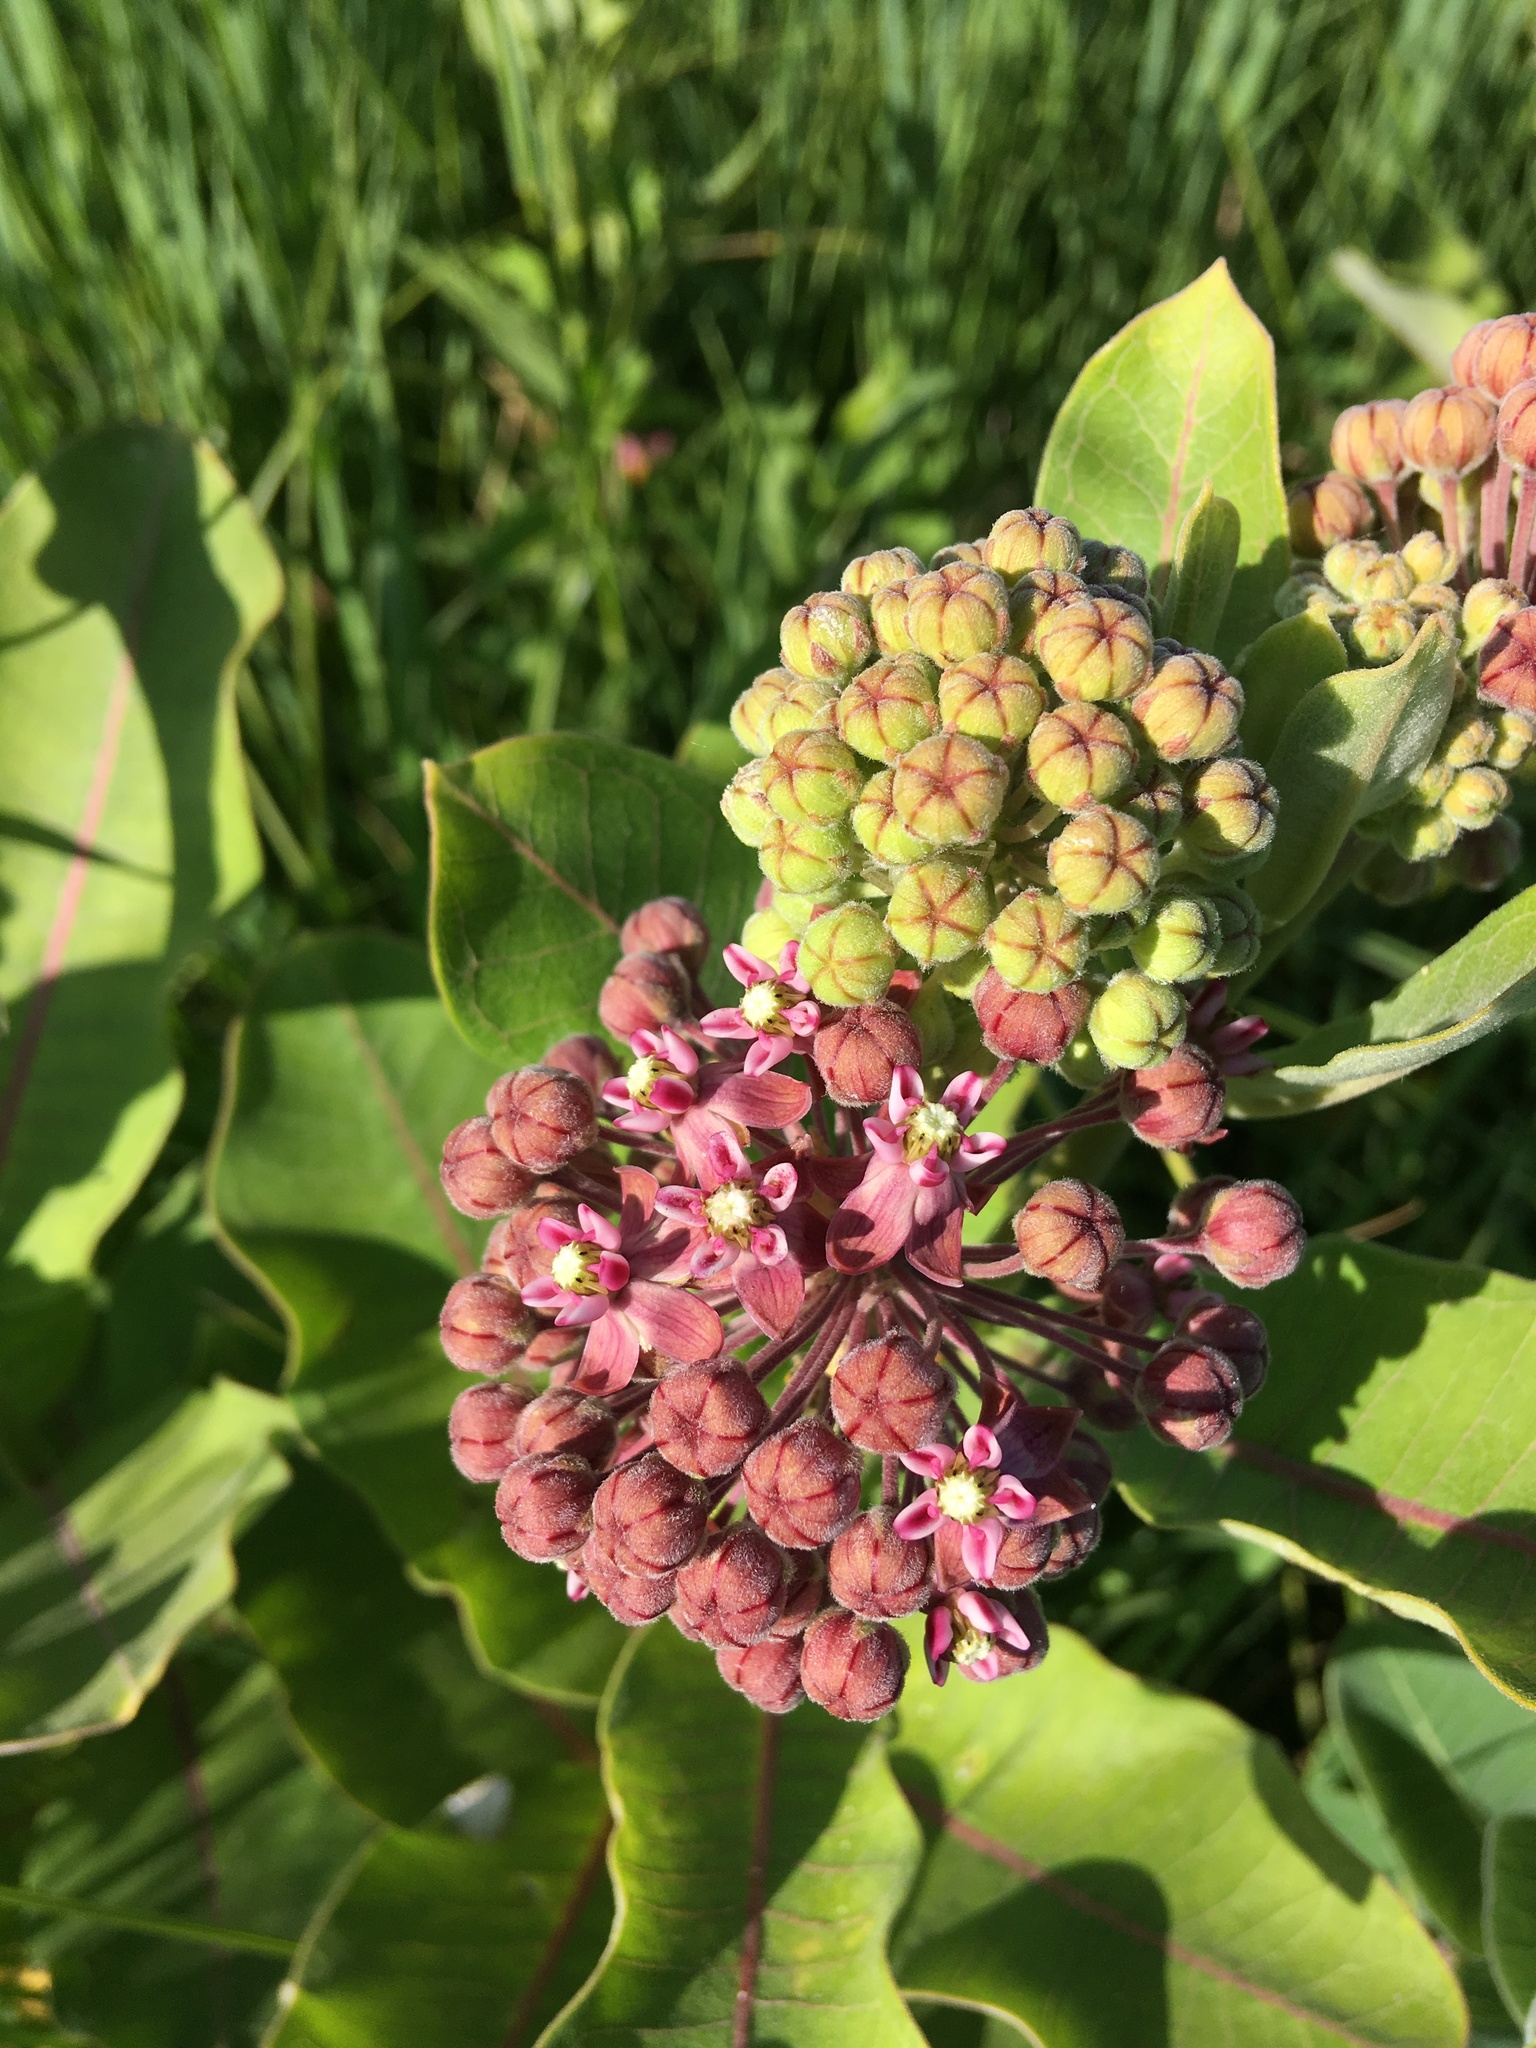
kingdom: Plantae
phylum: Tracheophyta
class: Magnoliopsida
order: Gentianales
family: Apocynaceae
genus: Asclepias
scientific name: Asclepias syriaca
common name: Common milkweed
